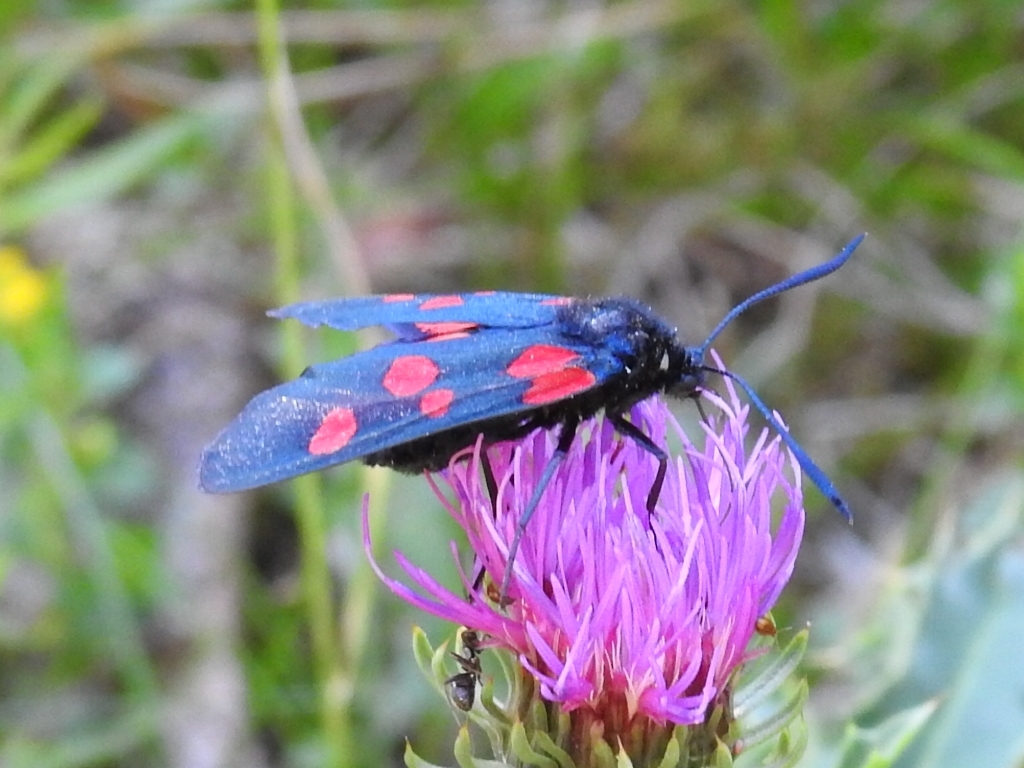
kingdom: Animalia
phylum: Arthropoda
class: Insecta
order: Lepidoptera
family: Zygaenidae
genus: Zygaena
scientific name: Zygaena lonicerae
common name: Narrow-bordered five-spot burnet
